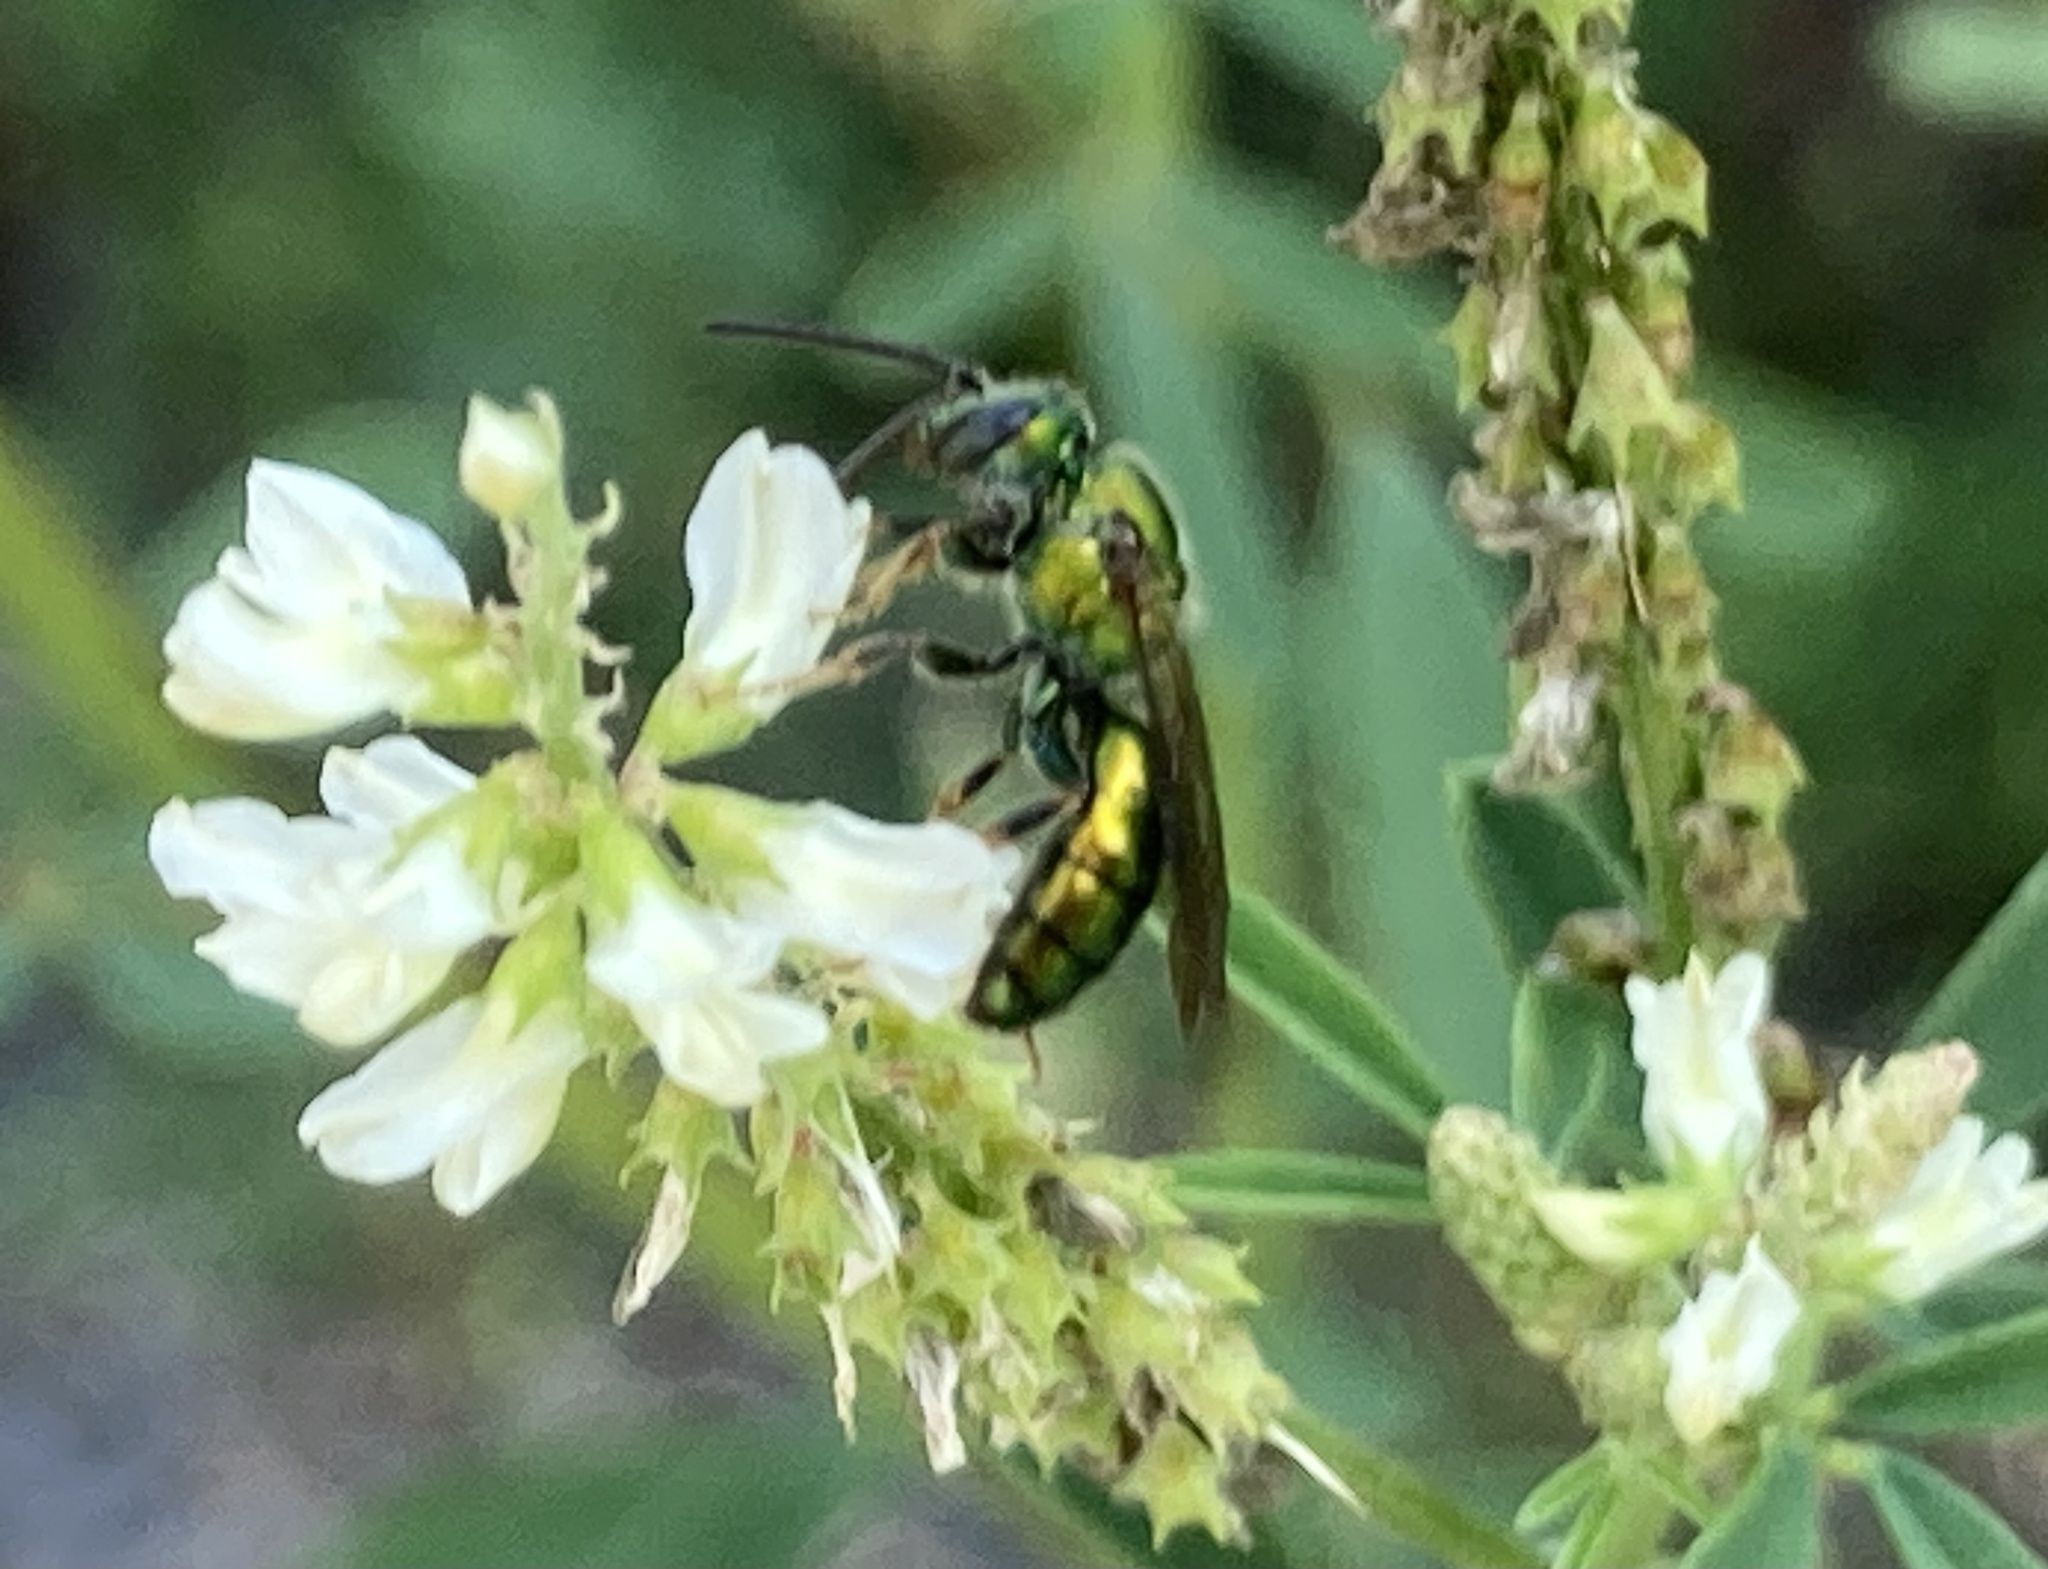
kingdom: Animalia
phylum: Arthropoda
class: Insecta
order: Hymenoptera
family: Halictidae
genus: Augochlora
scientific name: Augochlora pura
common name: Pure green sweat bee
